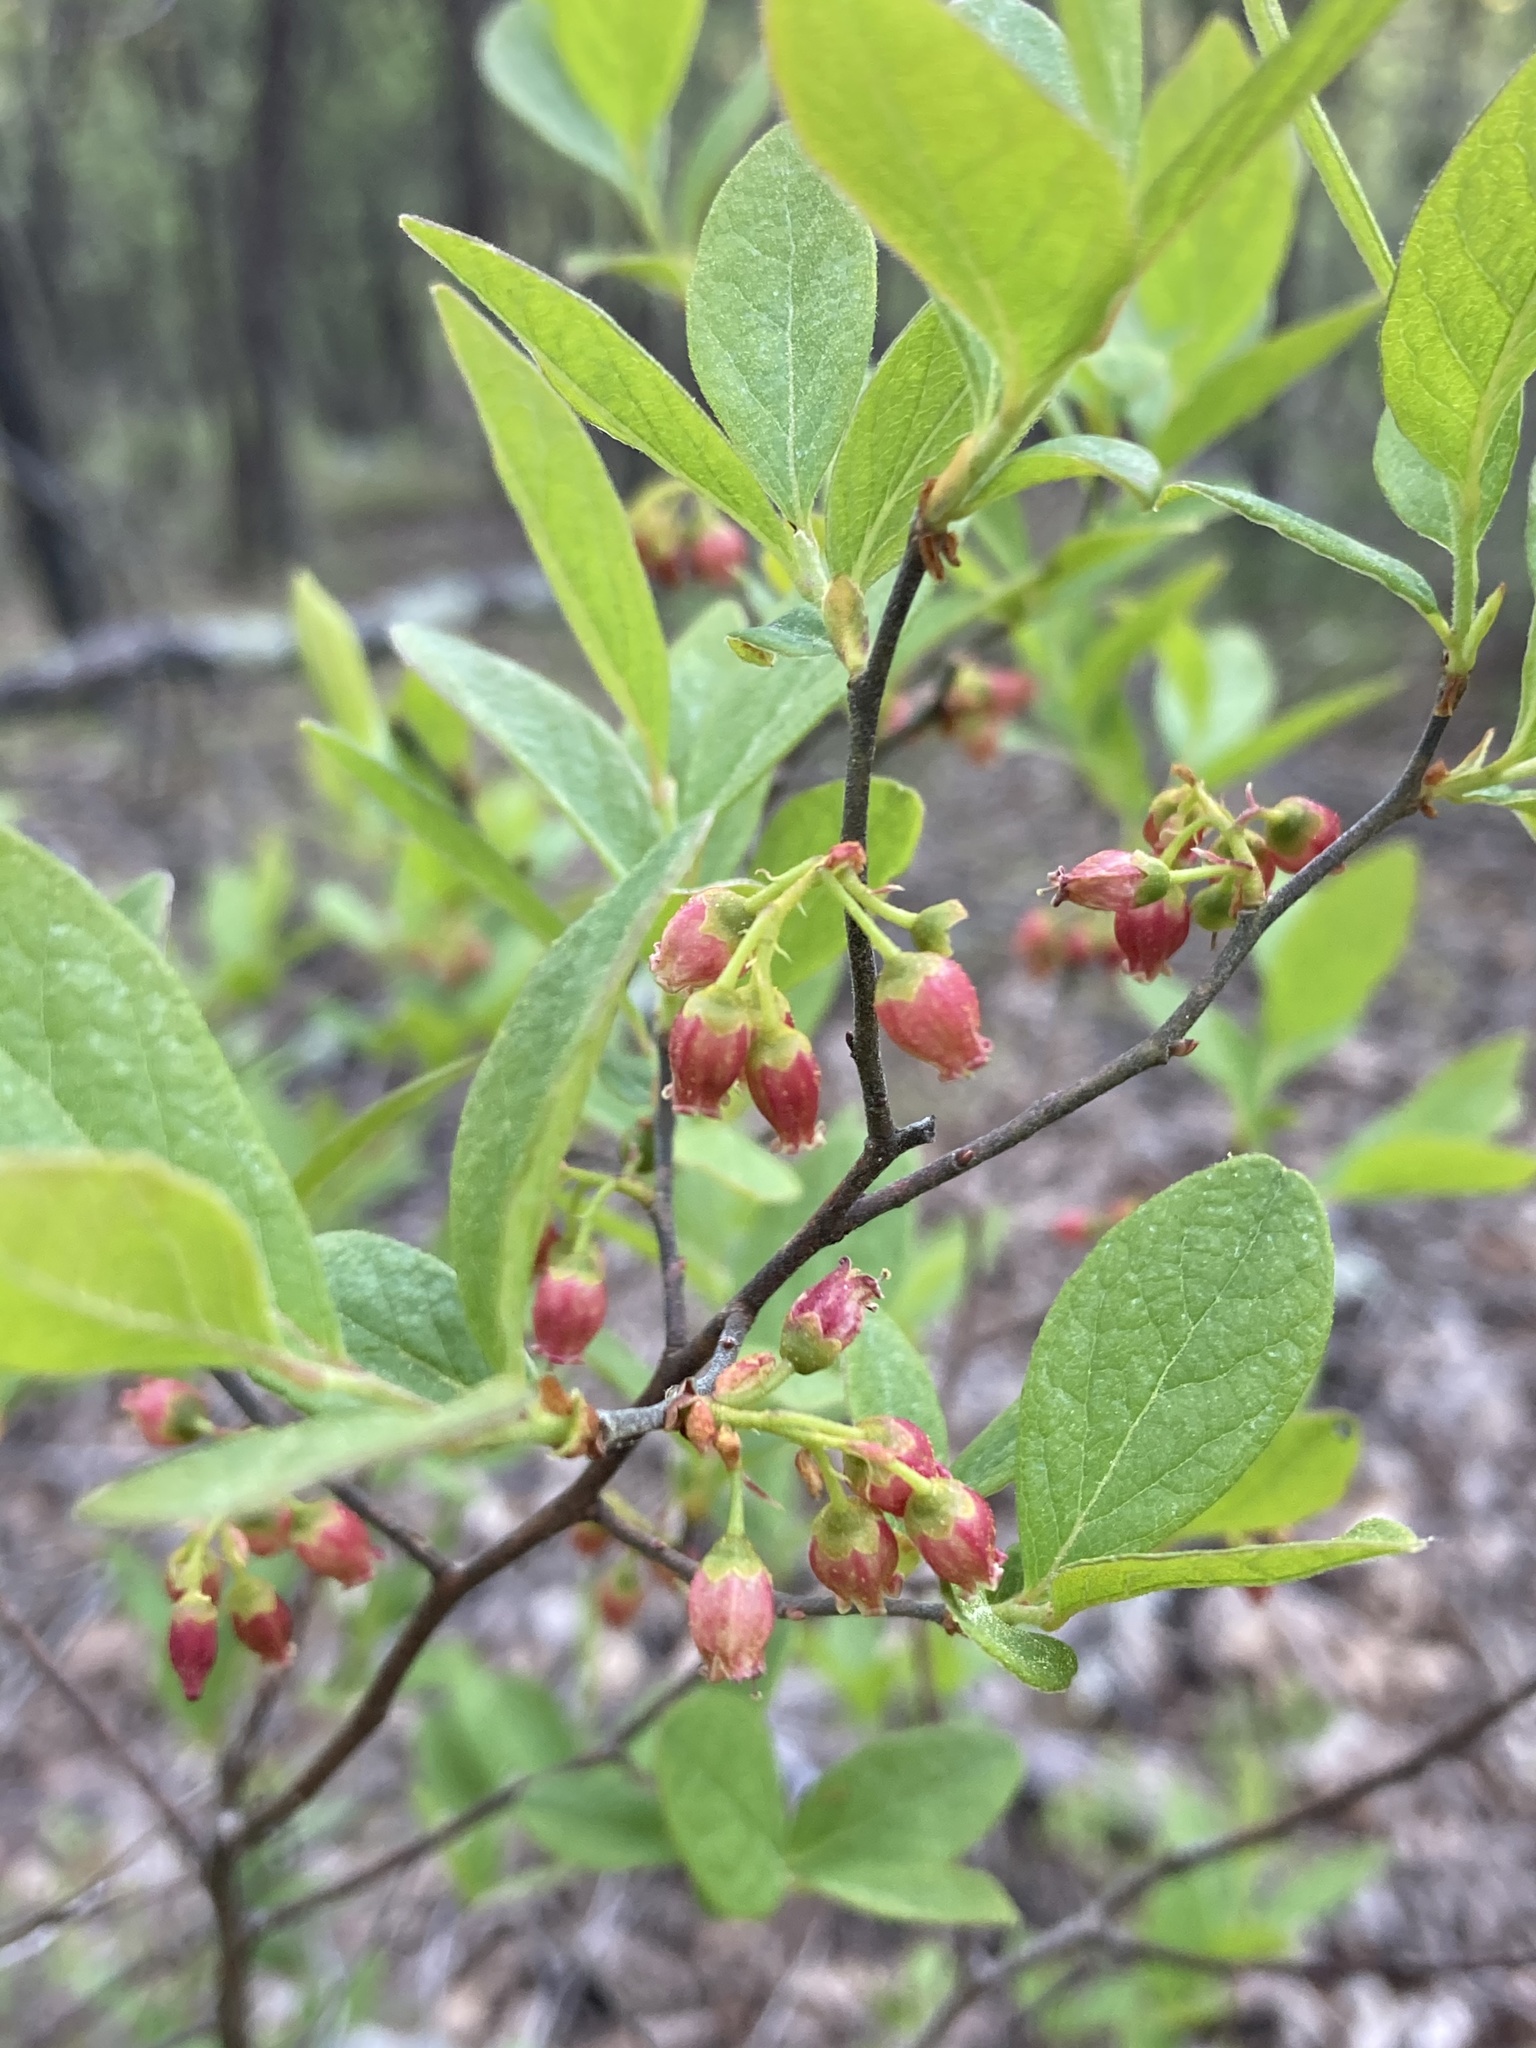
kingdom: Plantae
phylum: Tracheophyta
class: Magnoliopsida
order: Ericales
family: Ericaceae
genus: Gaylussacia
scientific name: Gaylussacia baccata
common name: Black huckleberry
